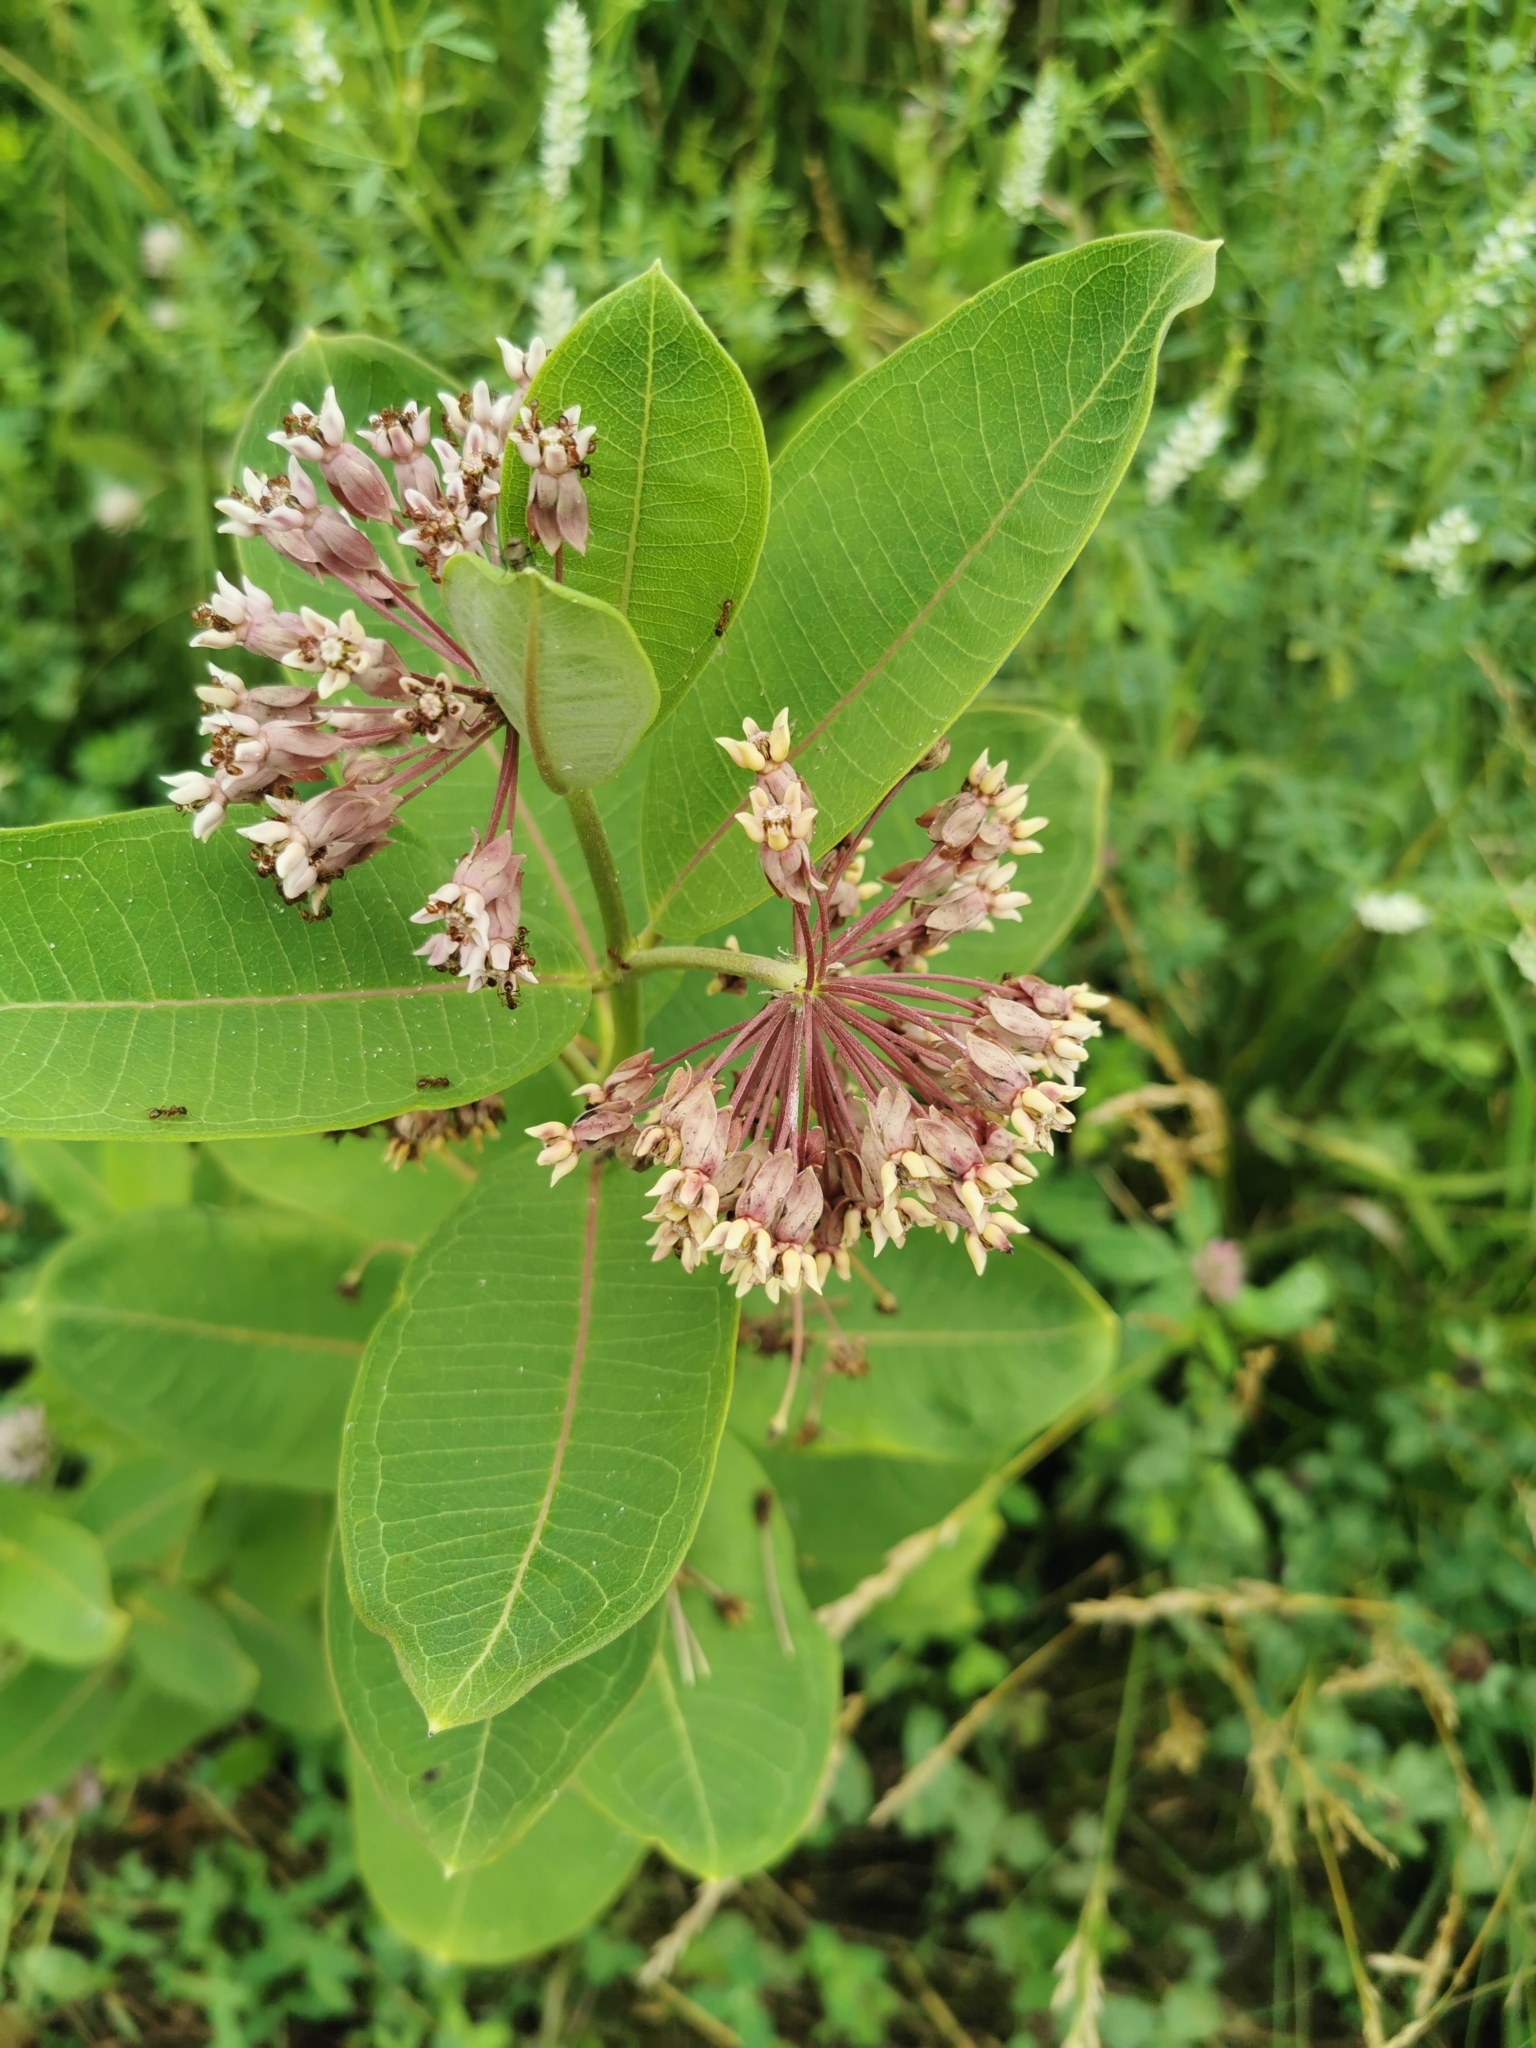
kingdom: Plantae
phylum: Tracheophyta
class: Magnoliopsida
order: Gentianales
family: Apocynaceae
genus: Asclepias
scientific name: Asclepias syriaca
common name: Common milkweed
